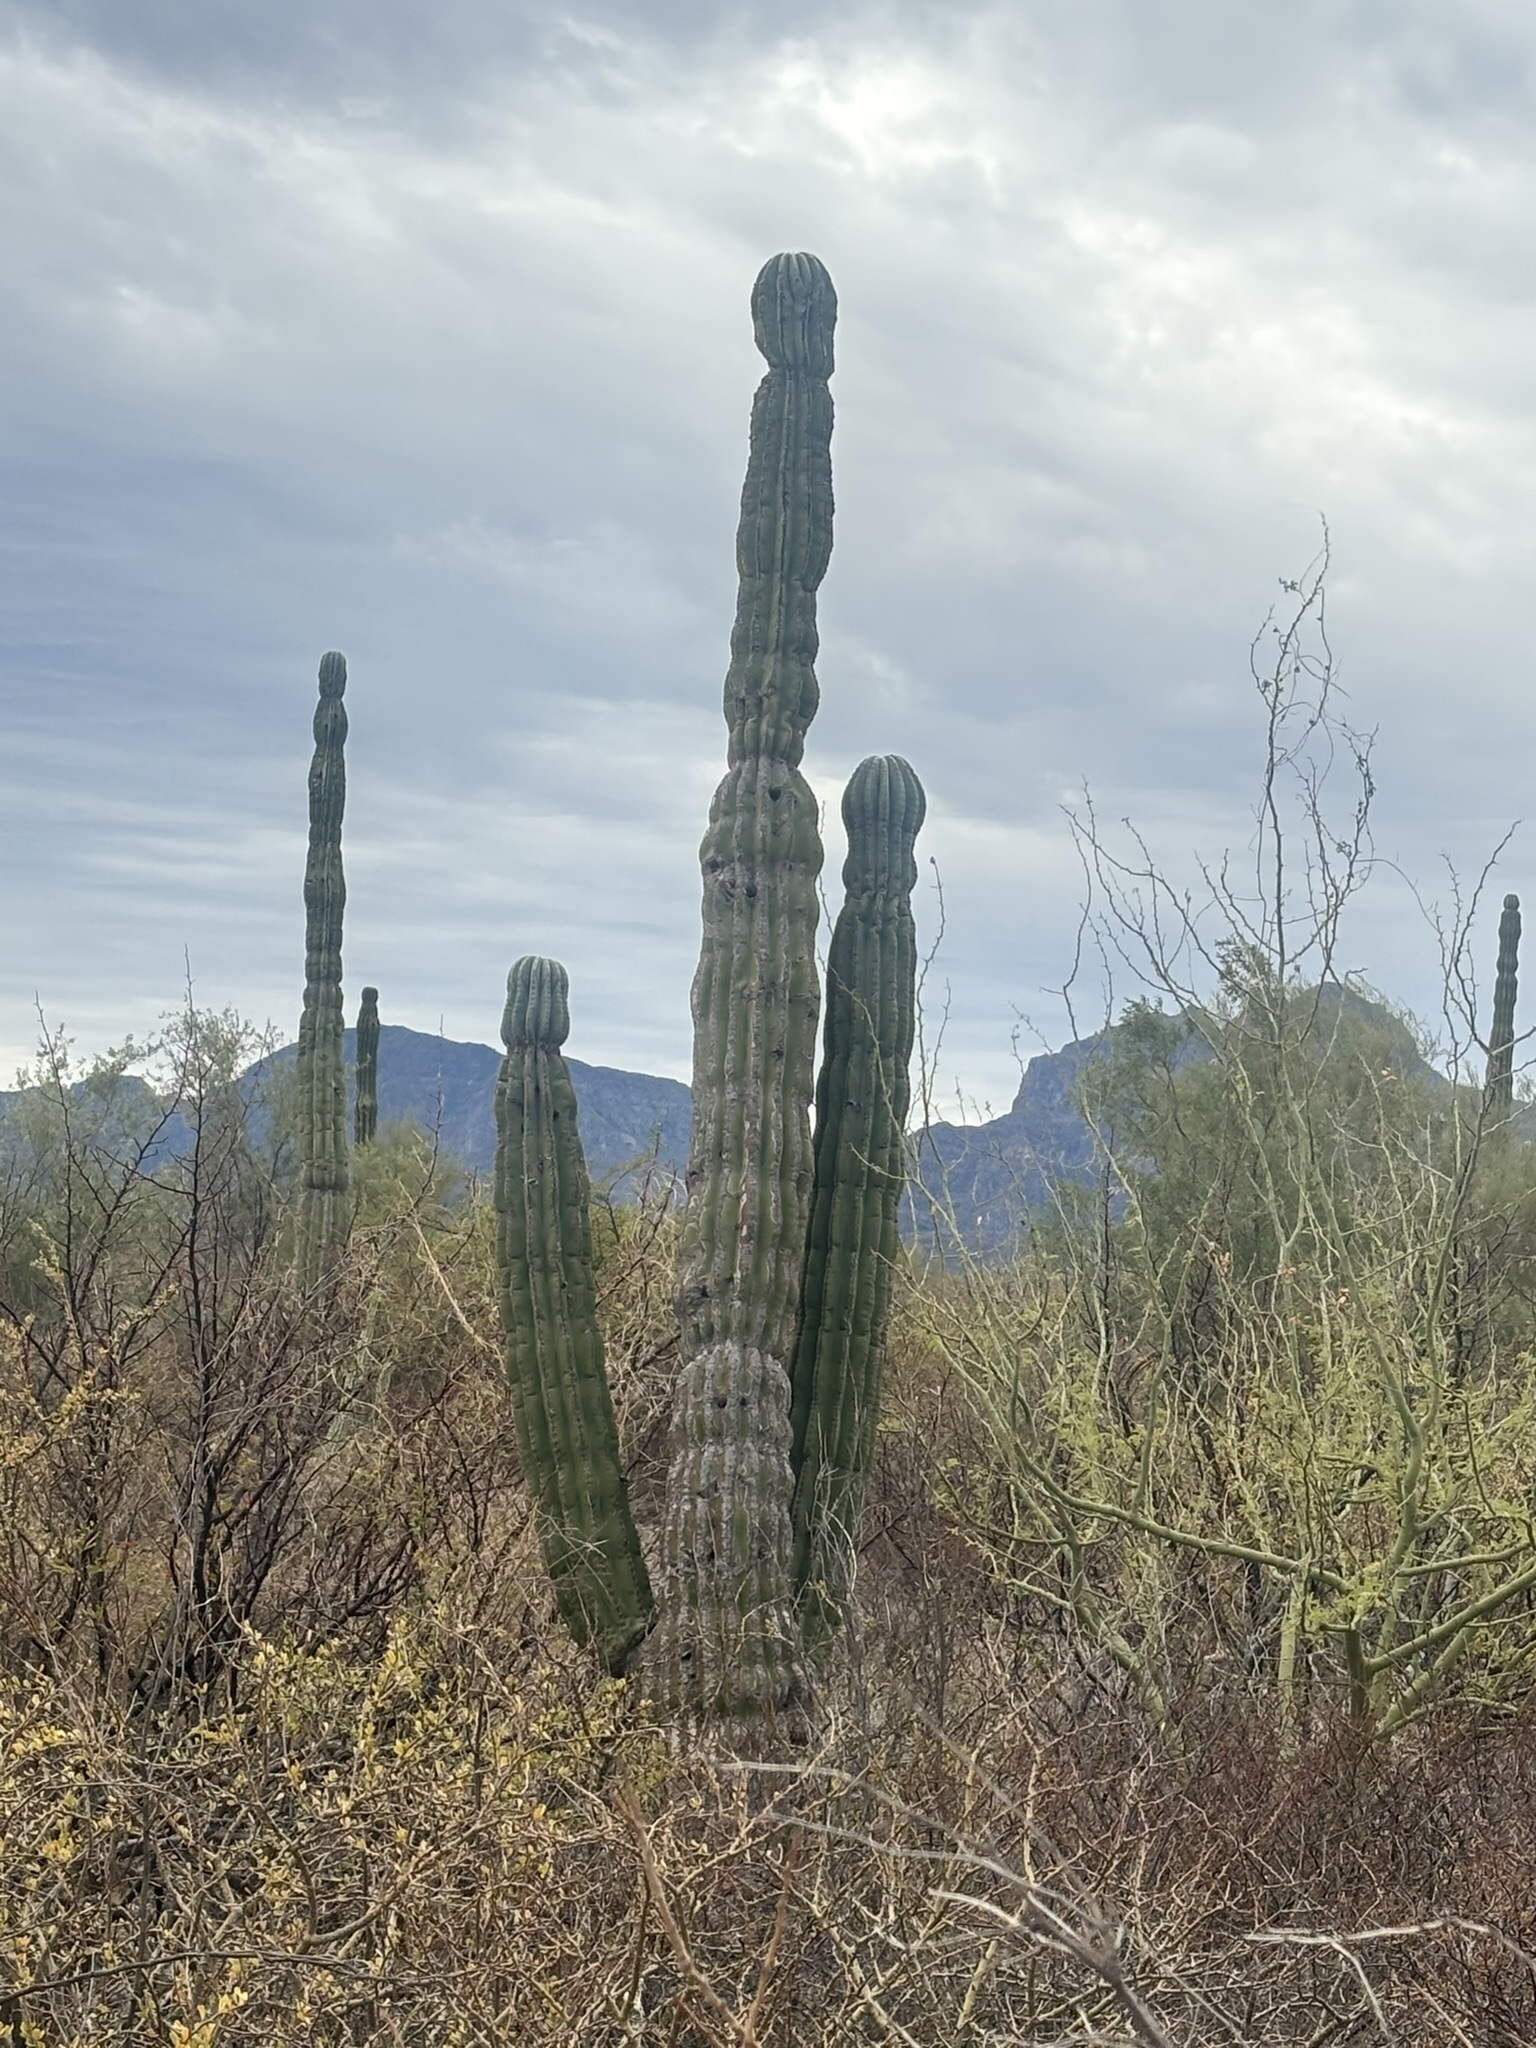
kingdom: Plantae
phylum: Tracheophyta
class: Magnoliopsida
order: Caryophyllales
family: Cactaceae
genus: Pachycereus
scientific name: Pachycereus pringlei
